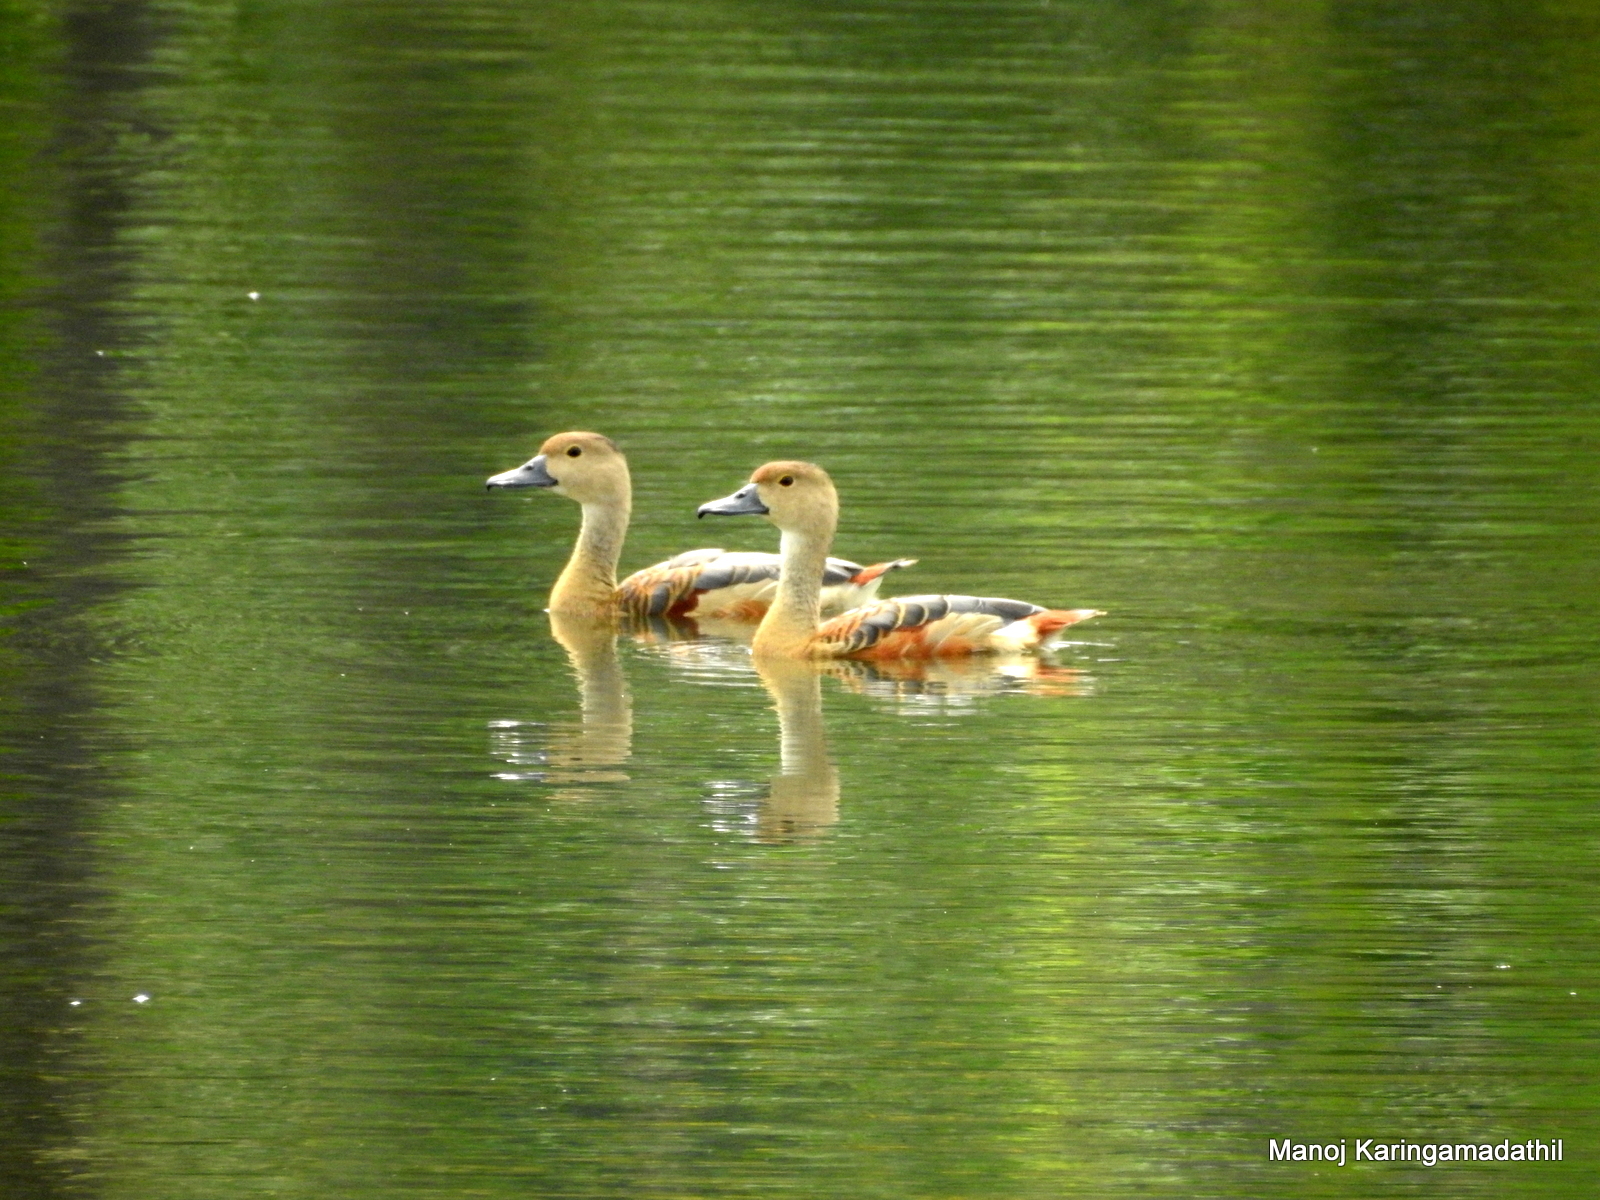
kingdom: Animalia
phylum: Chordata
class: Aves
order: Anseriformes
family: Anatidae
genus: Dendrocygna
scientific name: Dendrocygna javanica
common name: Lesser whistling-duck
